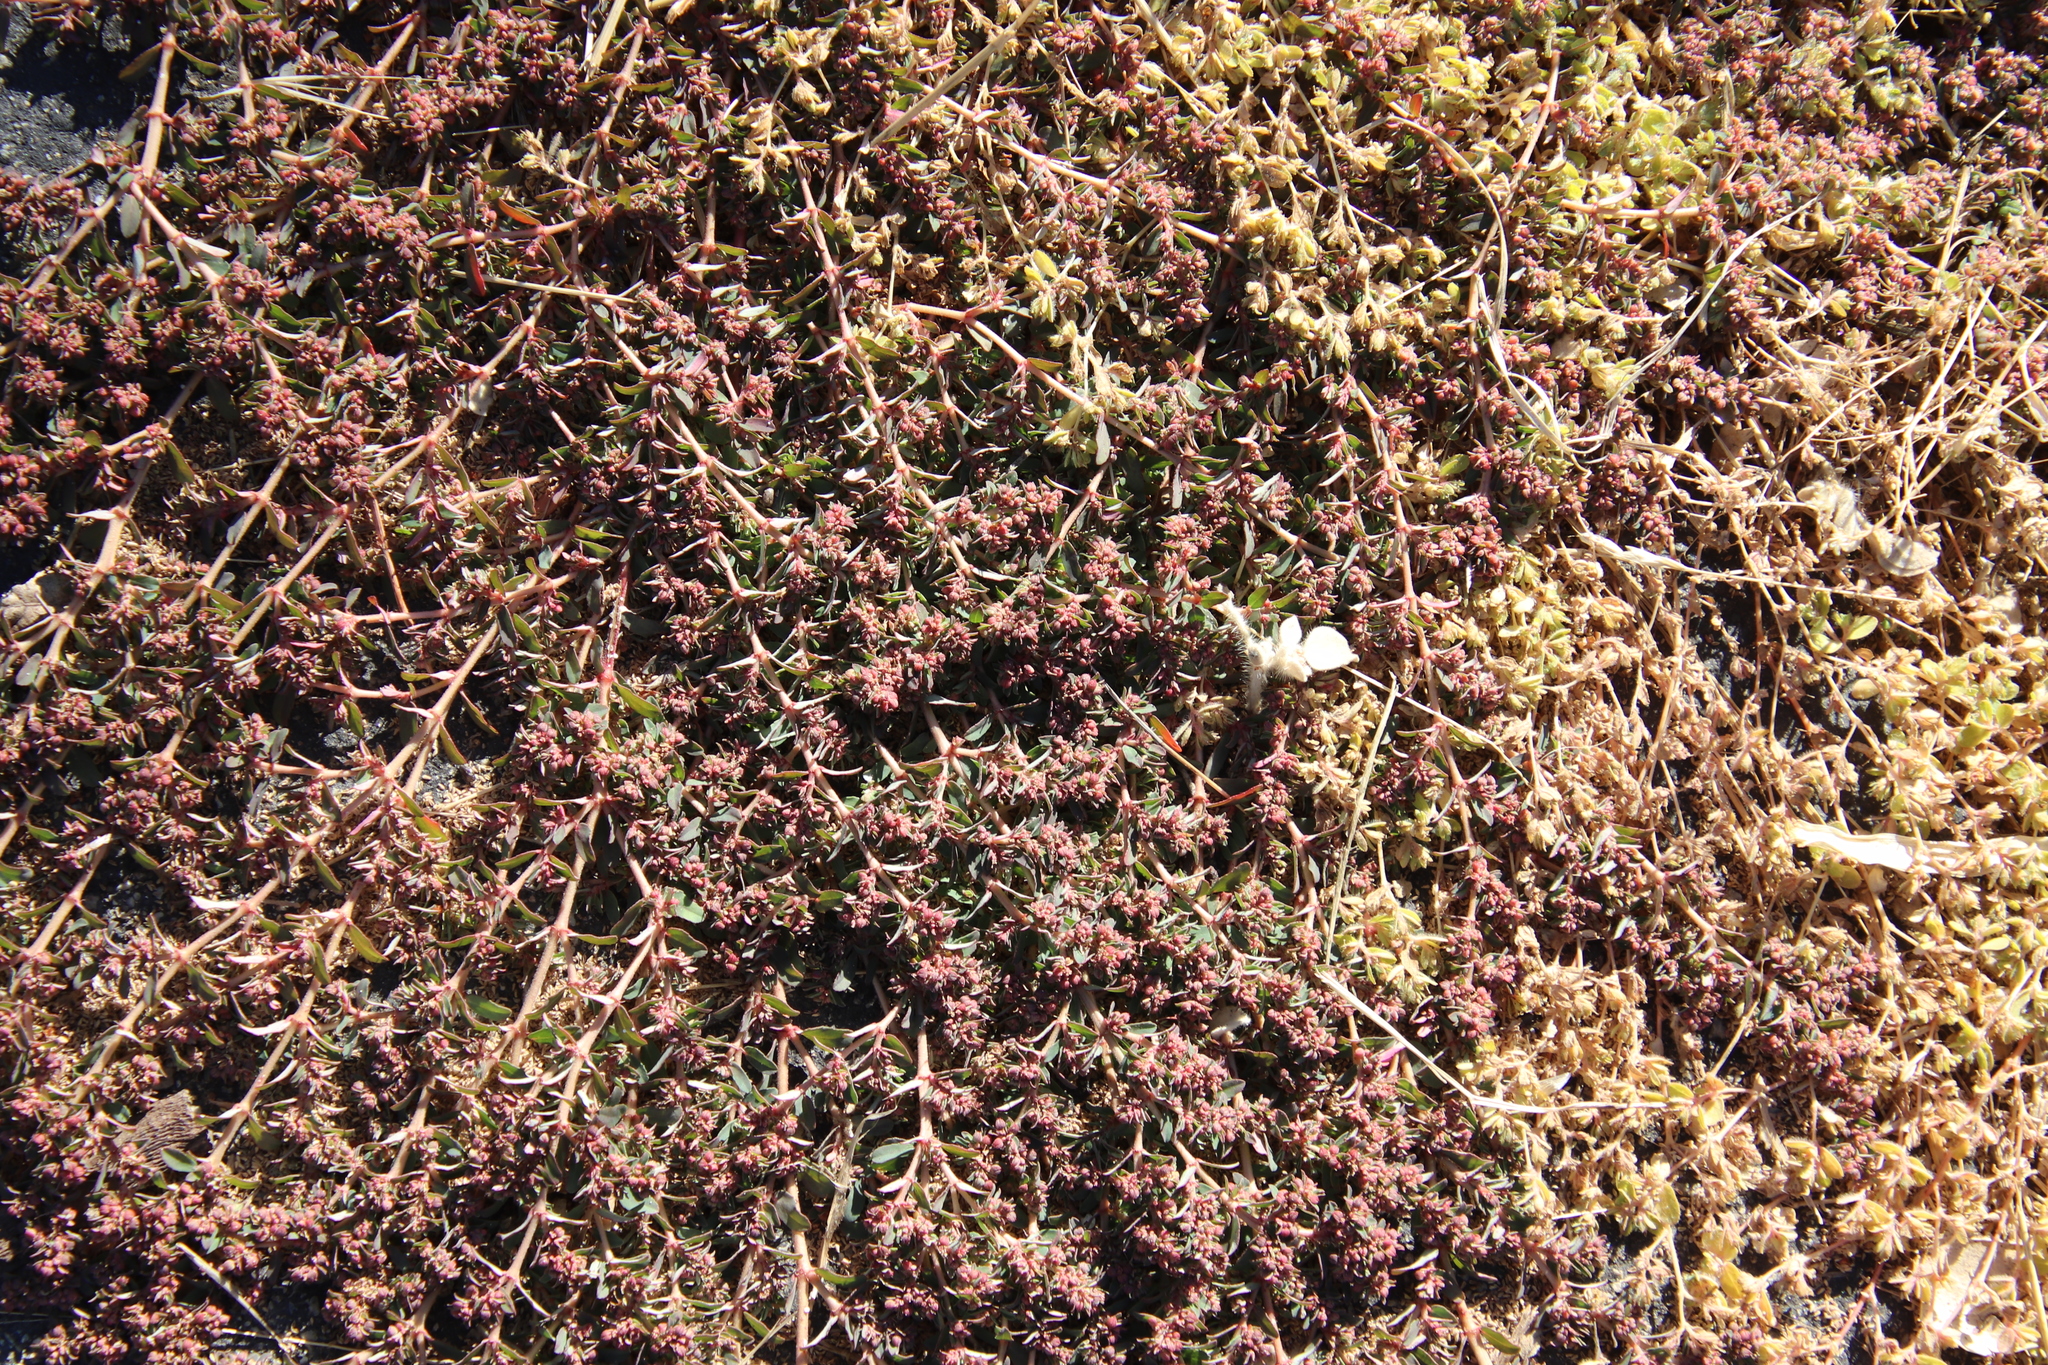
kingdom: Plantae
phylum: Tracheophyta
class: Magnoliopsida
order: Malpighiales
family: Euphorbiaceae
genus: Euphorbia
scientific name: Euphorbia maculata
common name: Spotted spurge
